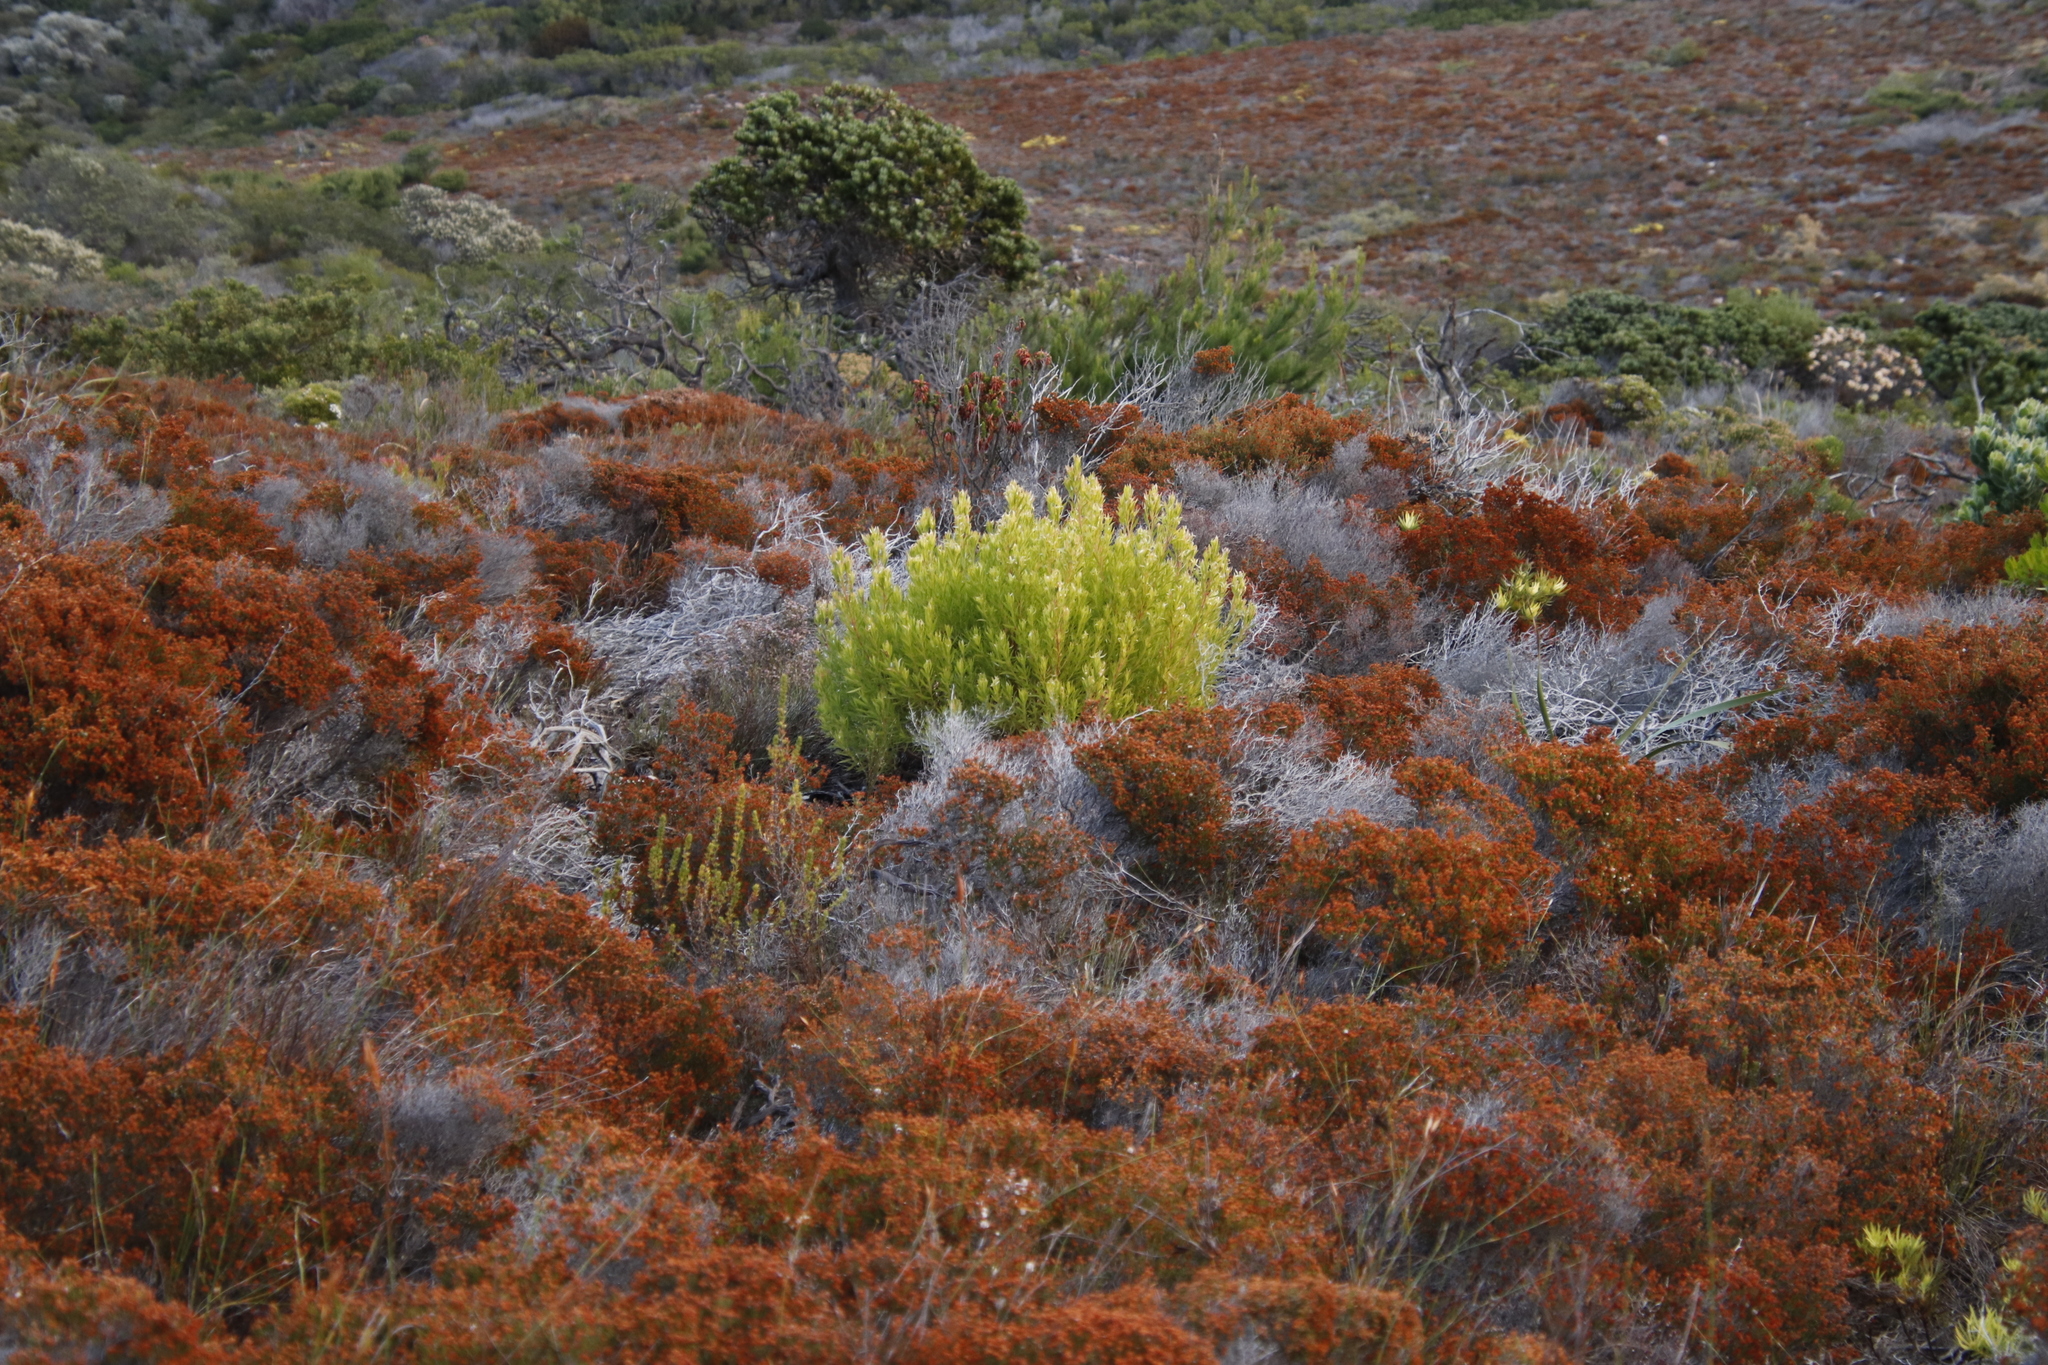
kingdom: Plantae
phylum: Tracheophyta
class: Magnoliopsida
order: Proteales
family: Proteaceae
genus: Leucadendron
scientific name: Leucadendron xanthoconus
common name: Sickle-leaf conebush
